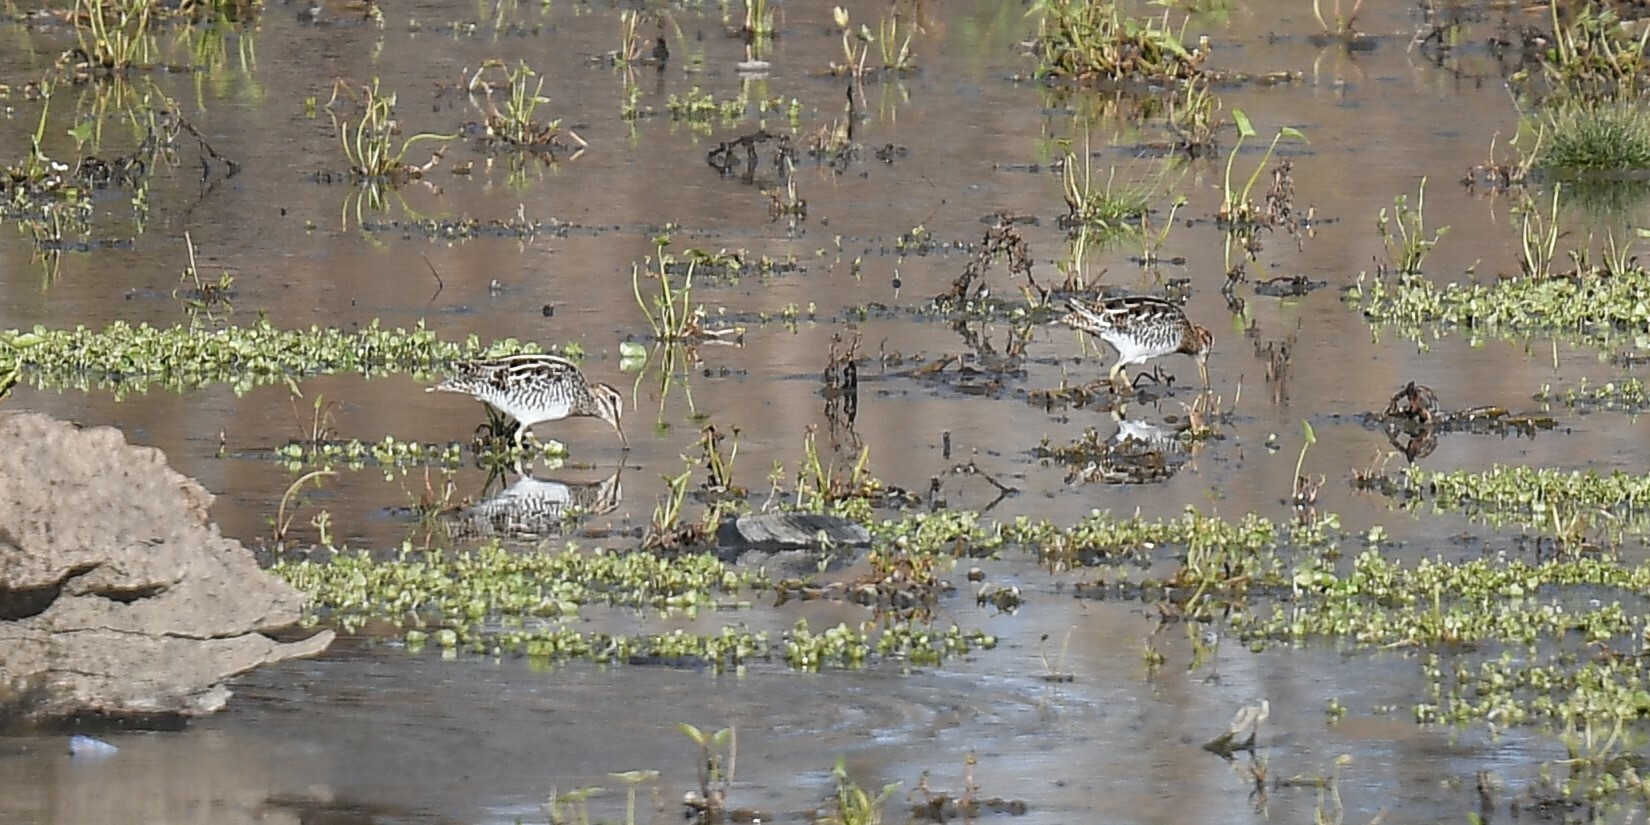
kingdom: Animalia
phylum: Chordata
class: Aves
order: Charadriiformes
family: Scolopacidae
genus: Gallinago
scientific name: Gallinago delicata
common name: Wilson's snipe
